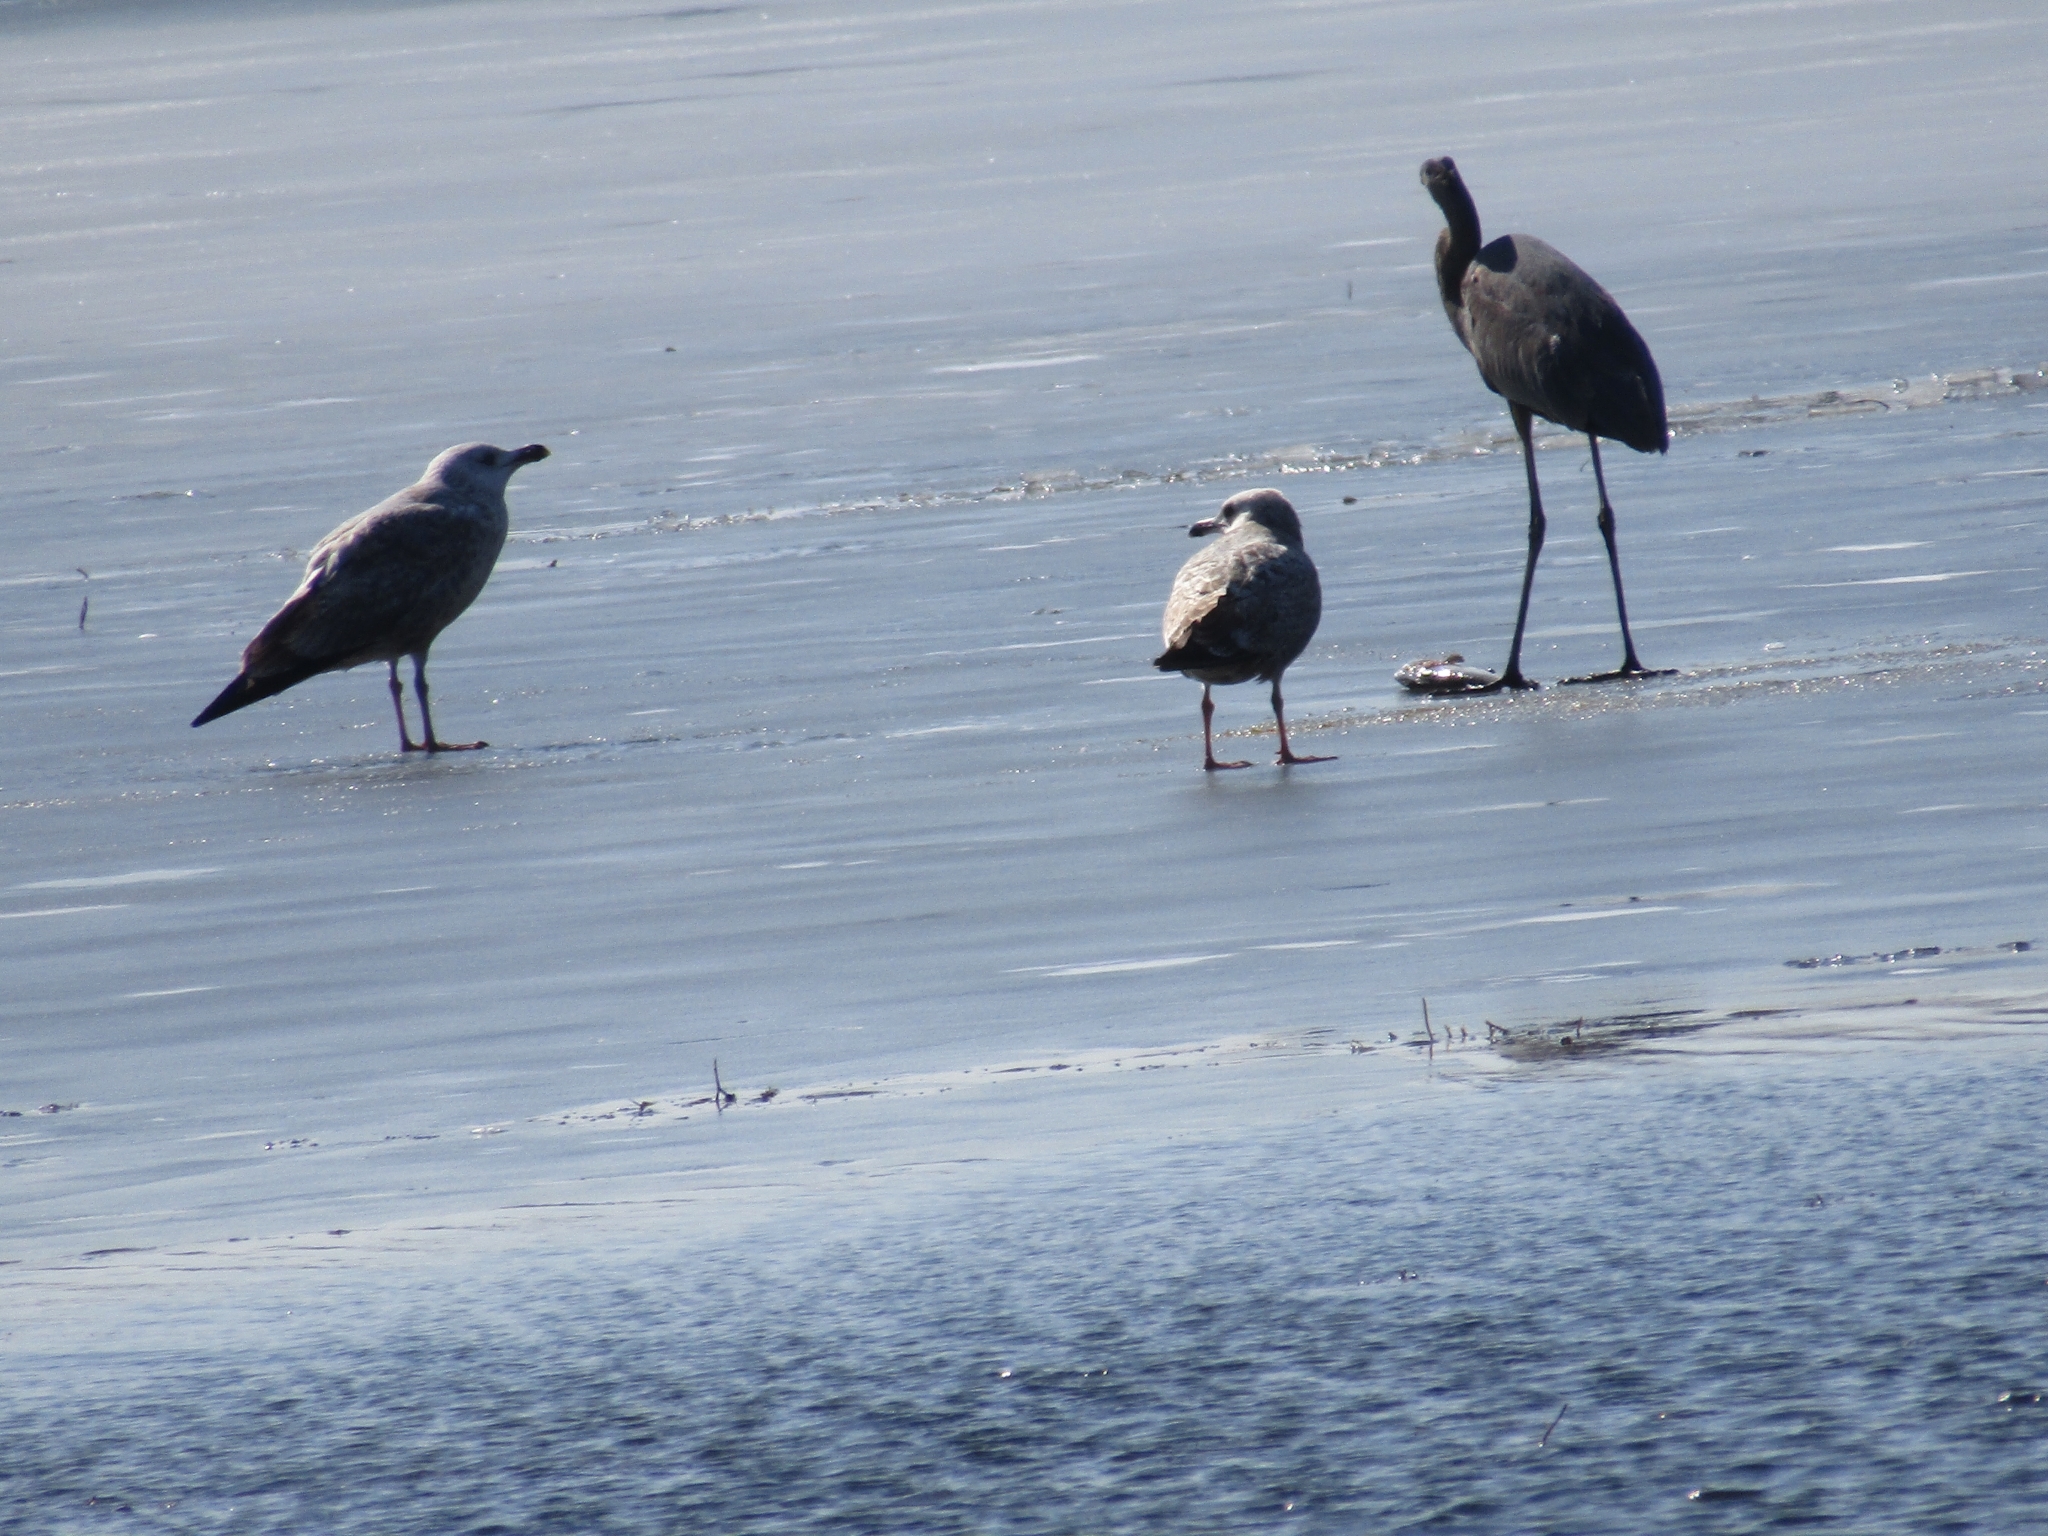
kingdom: Animalia
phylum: Chordata
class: Aves
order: Pelecaniformes
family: Ardeidae
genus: Ardea
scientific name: Ardea herodias
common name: Great blue heron
